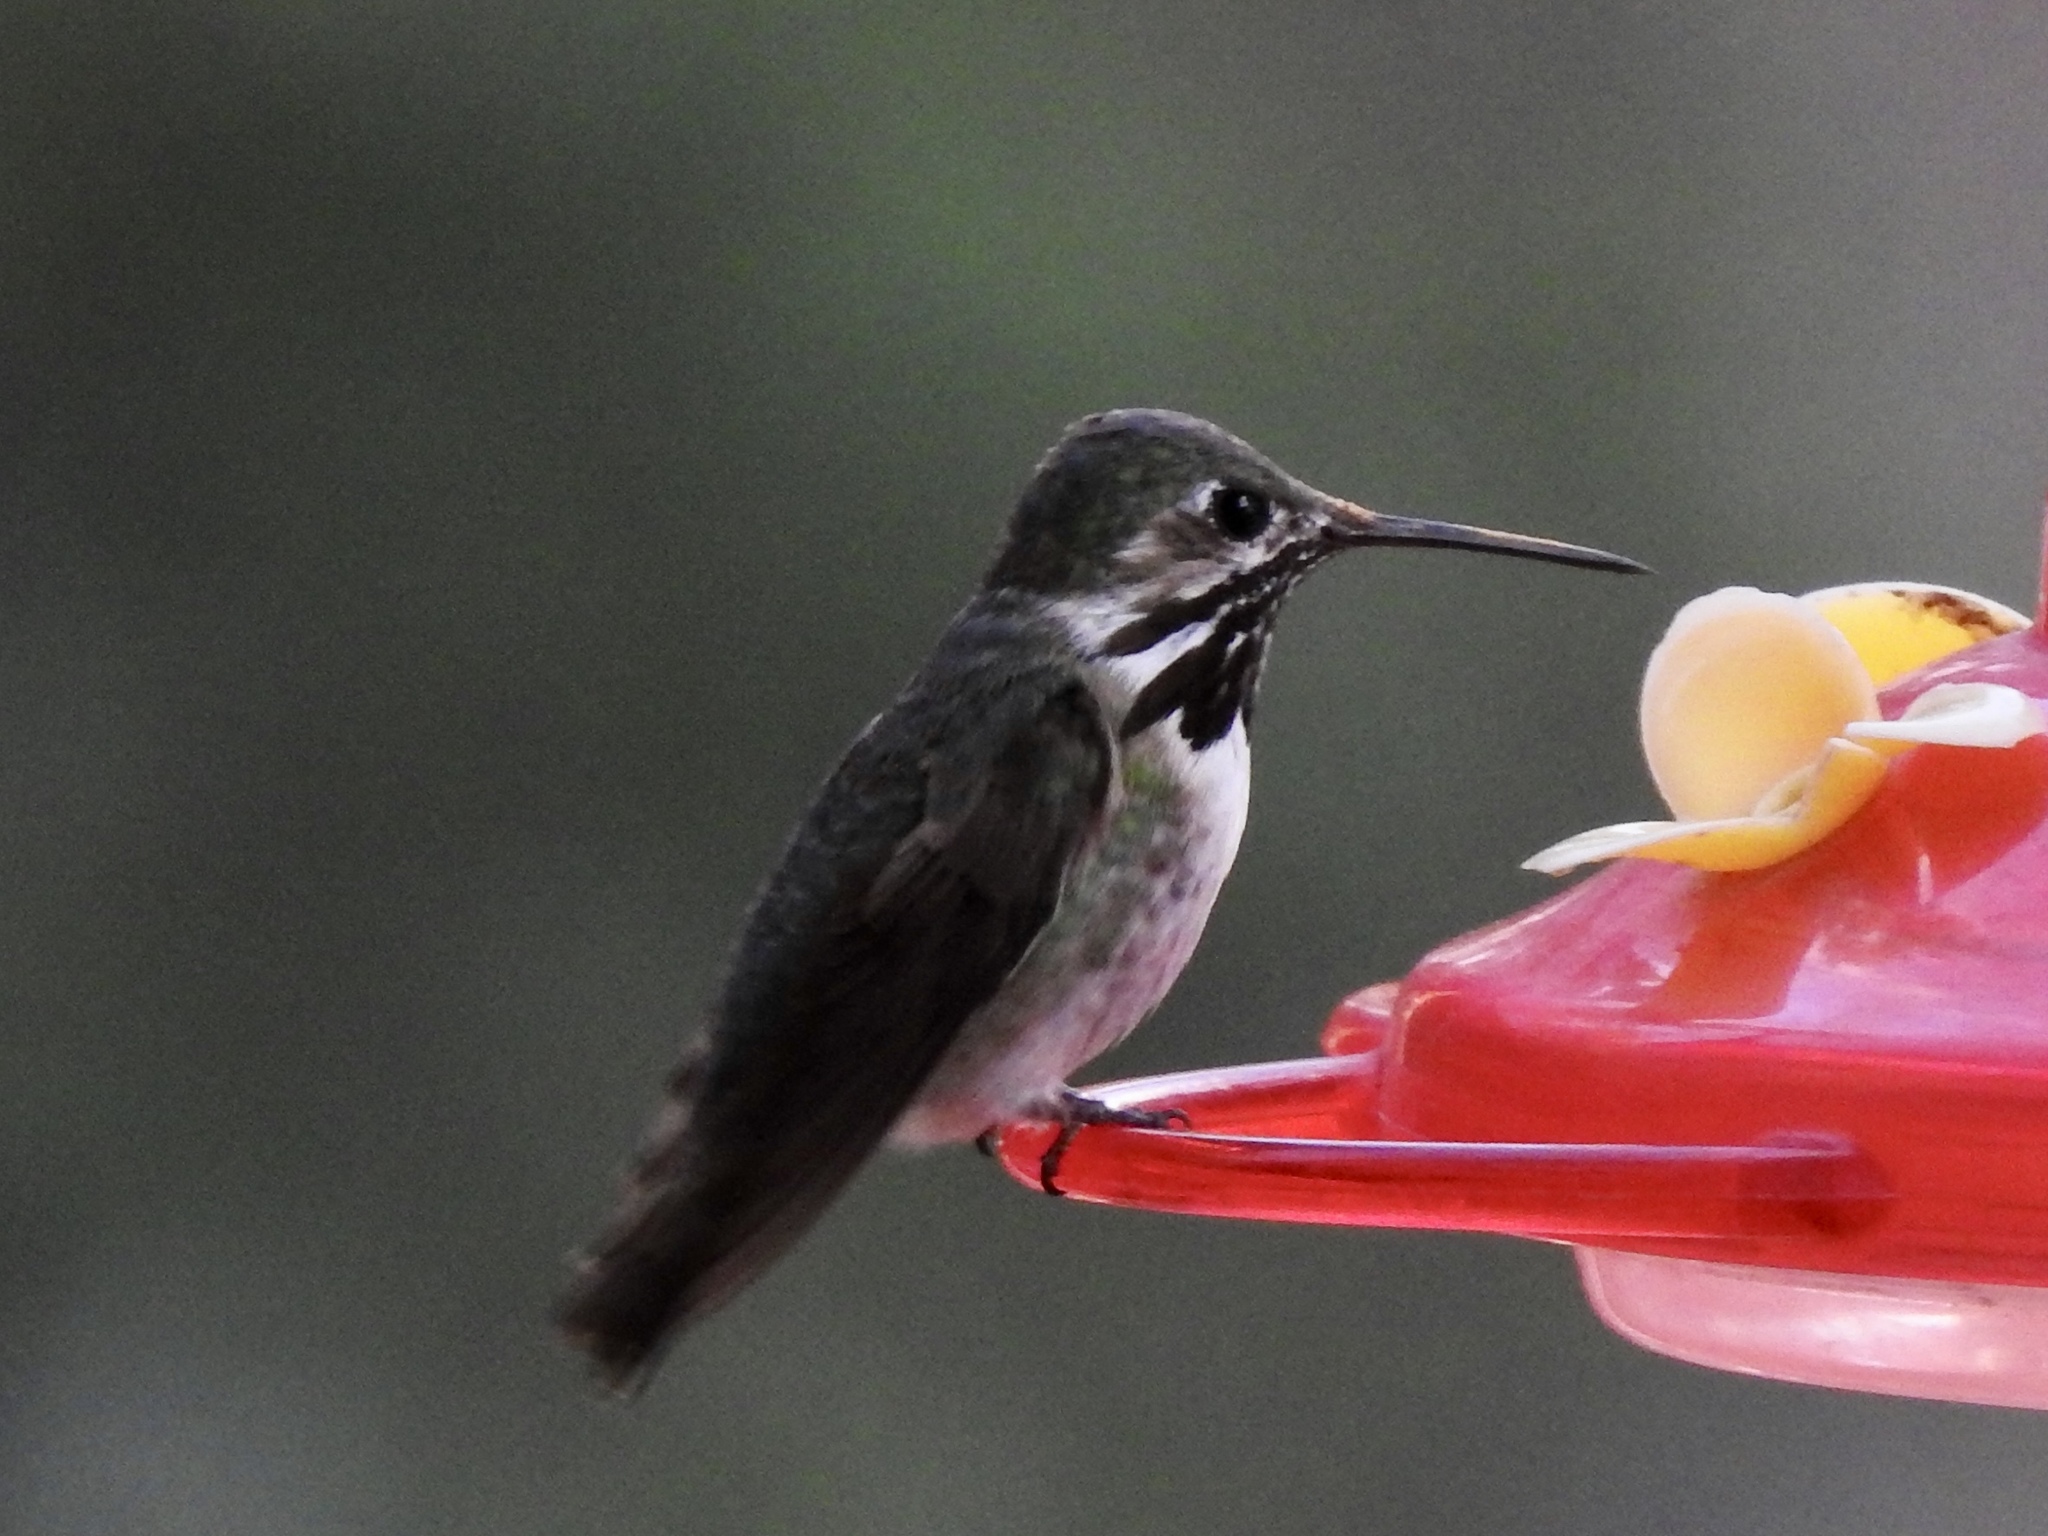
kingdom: Animalia
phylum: Chordata
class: Aves
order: Apodiformes
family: Trochilidae
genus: Selasphorus
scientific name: Selasphorus calliope
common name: Calliope hummingbird
